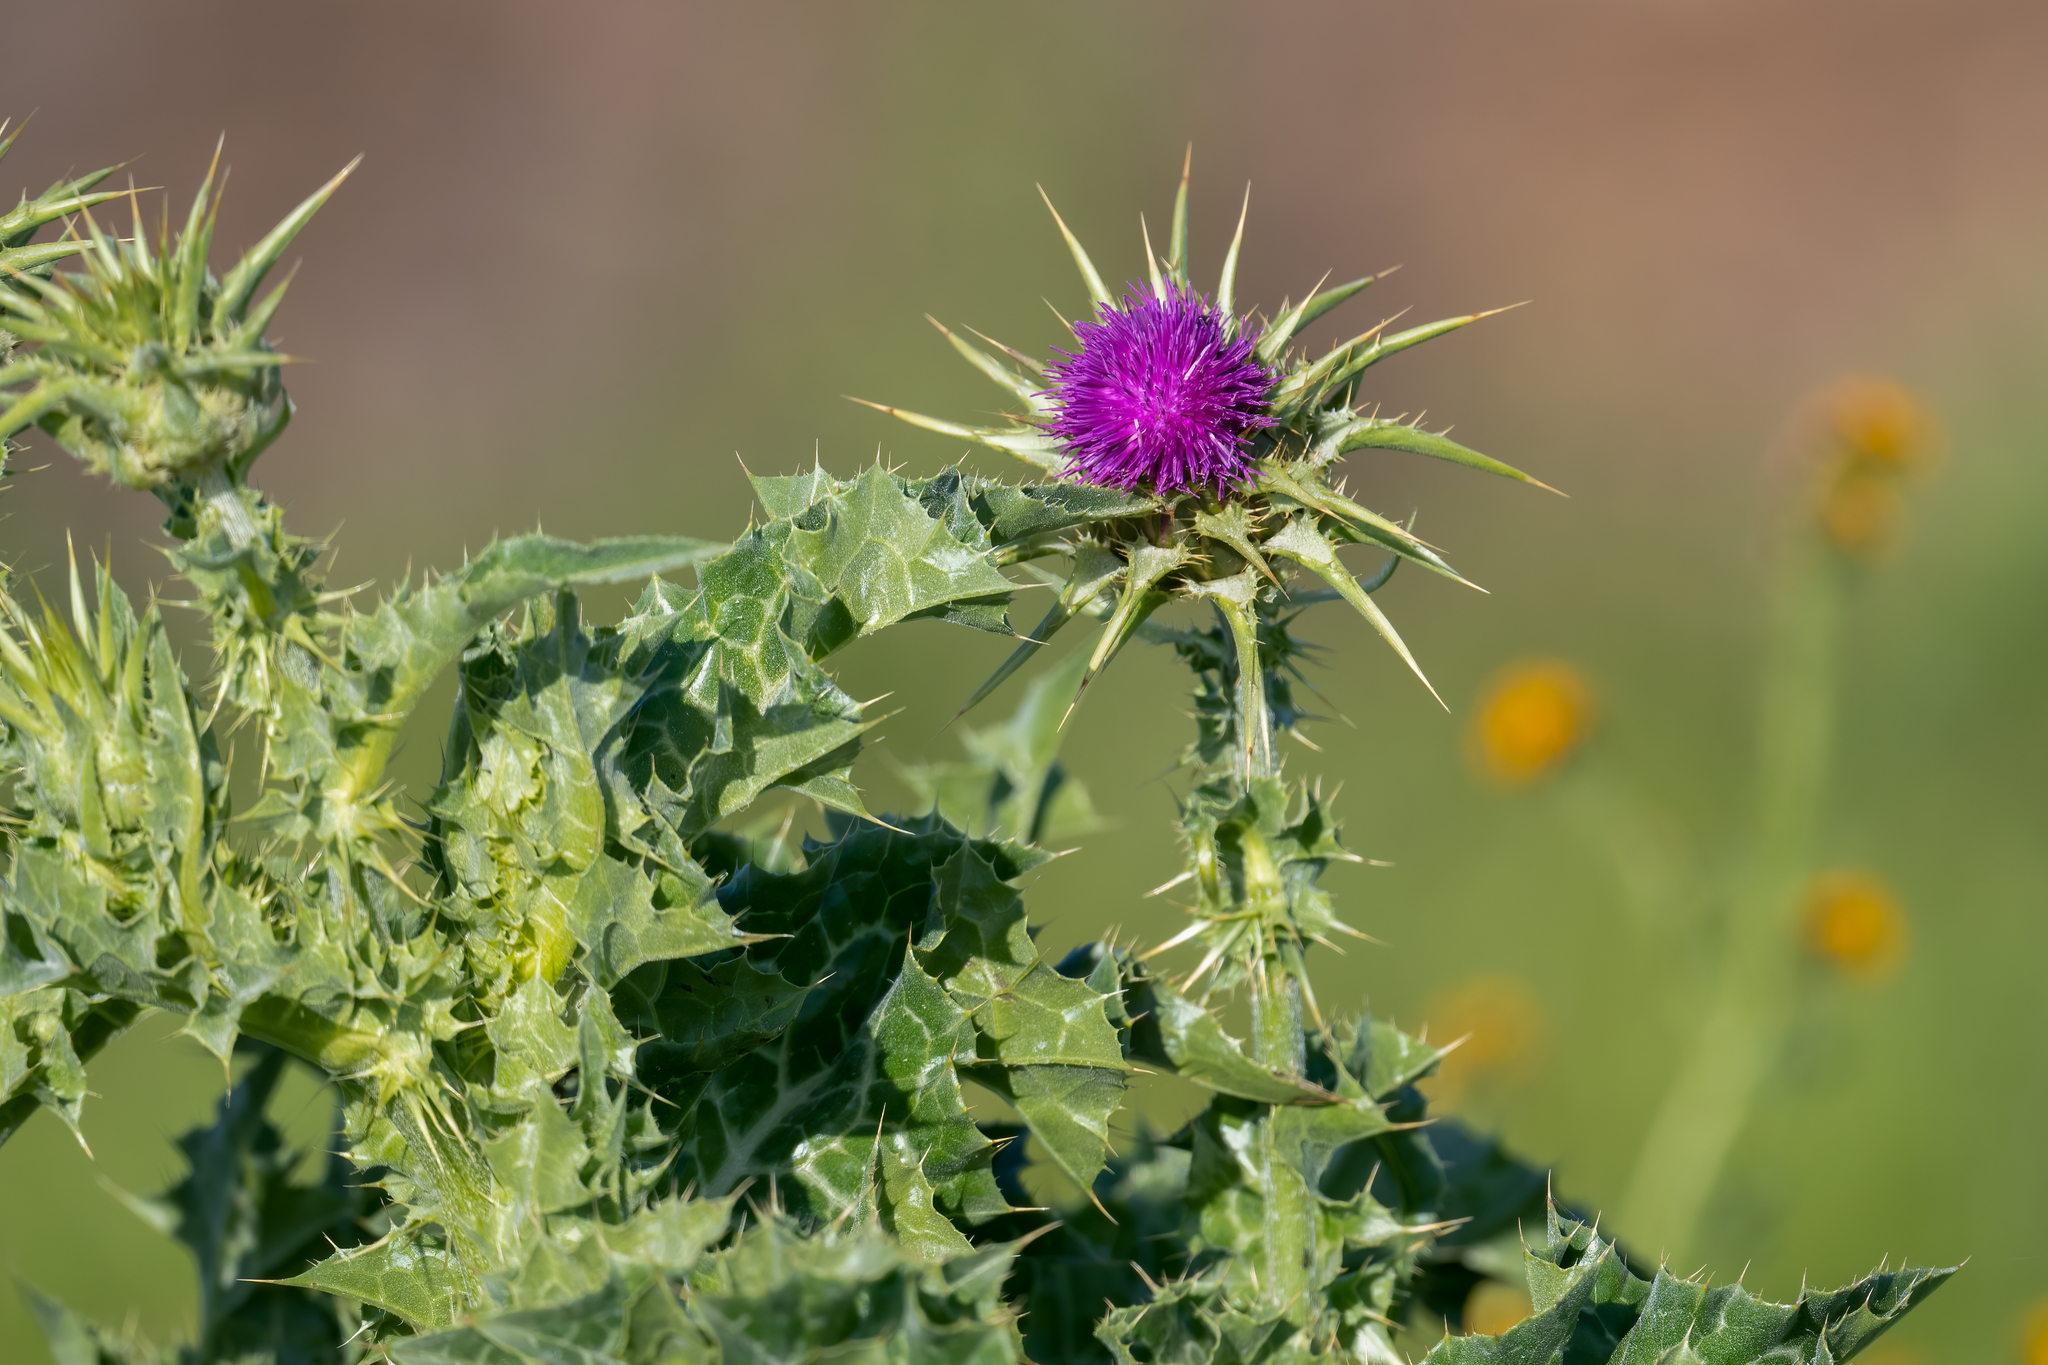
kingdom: Plantae
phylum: Tracheophyta
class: Magnoliopsida
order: Asterales
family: Asteraceae
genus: Silybum
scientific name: Silybum marianum
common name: Milk thistle
